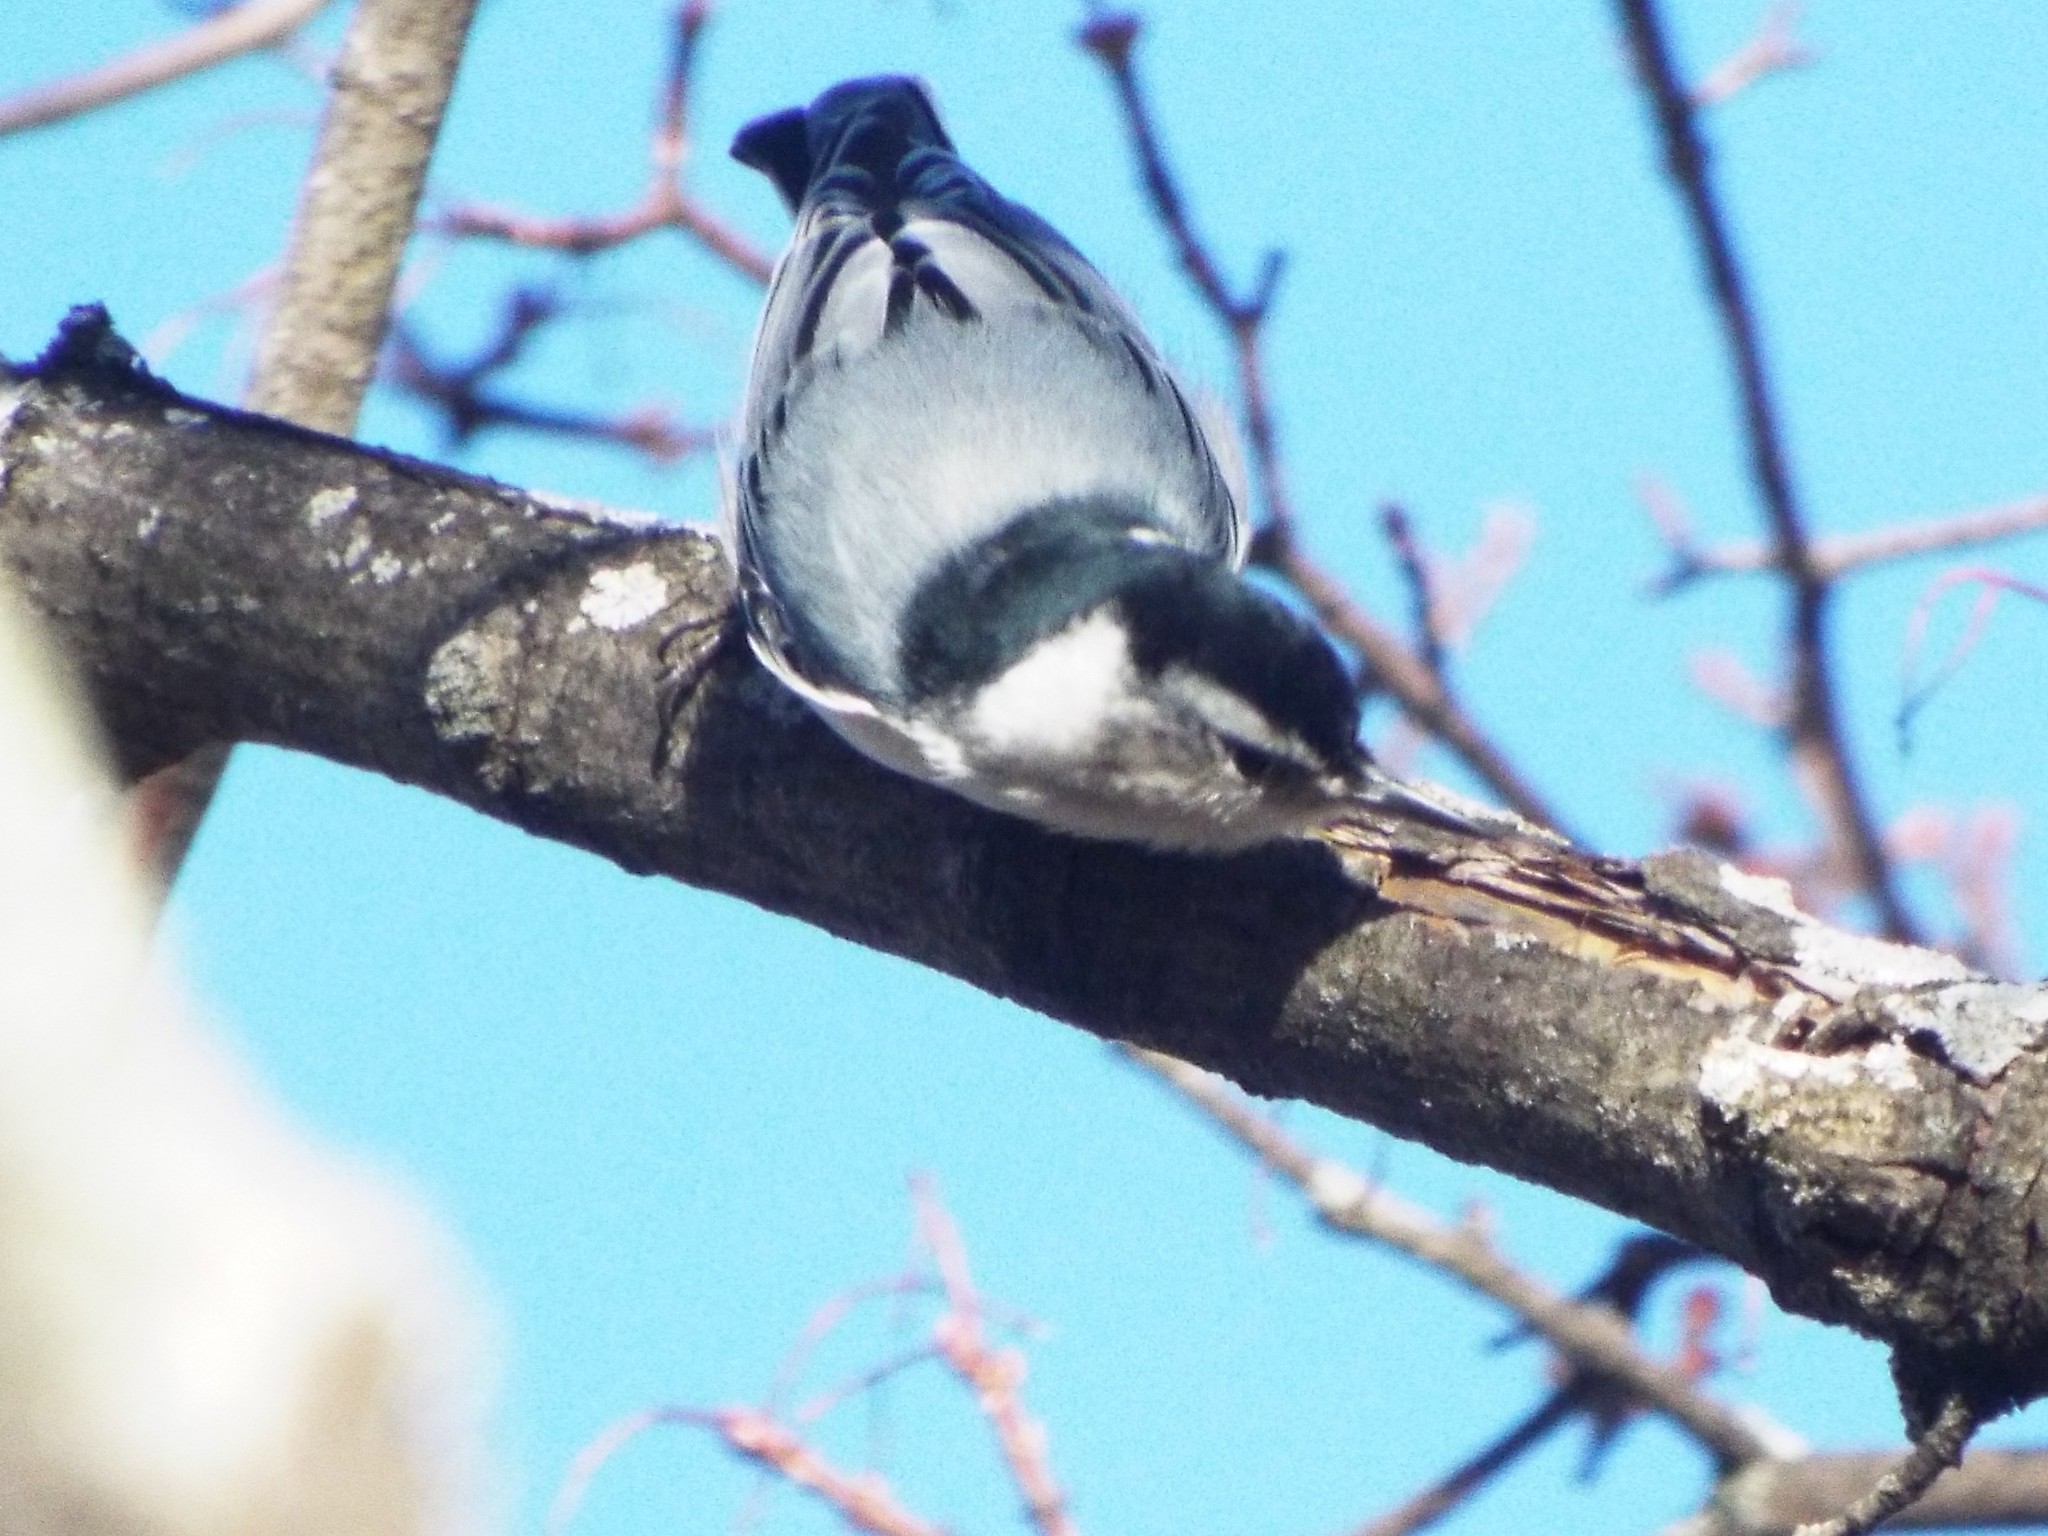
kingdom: Animalia
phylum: Chordata
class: Aves
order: Passeriformes
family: Sittidae
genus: Sitta
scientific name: Sitta carolinensis
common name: White-breasted nuthatch
